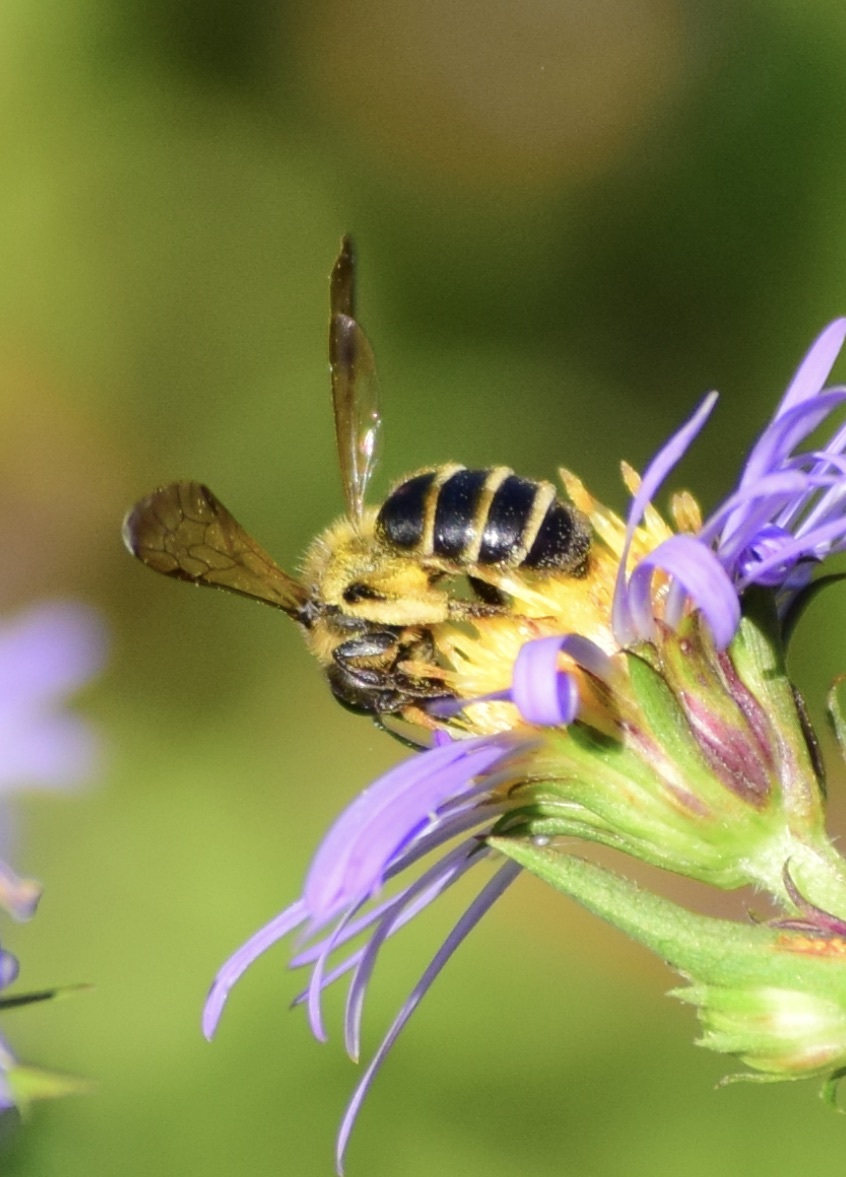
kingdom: Animalia
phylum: Arthropoda
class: Insecta
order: Hymenoptera
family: Andrenidae
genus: Andrena
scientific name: Andrena robervalensis
